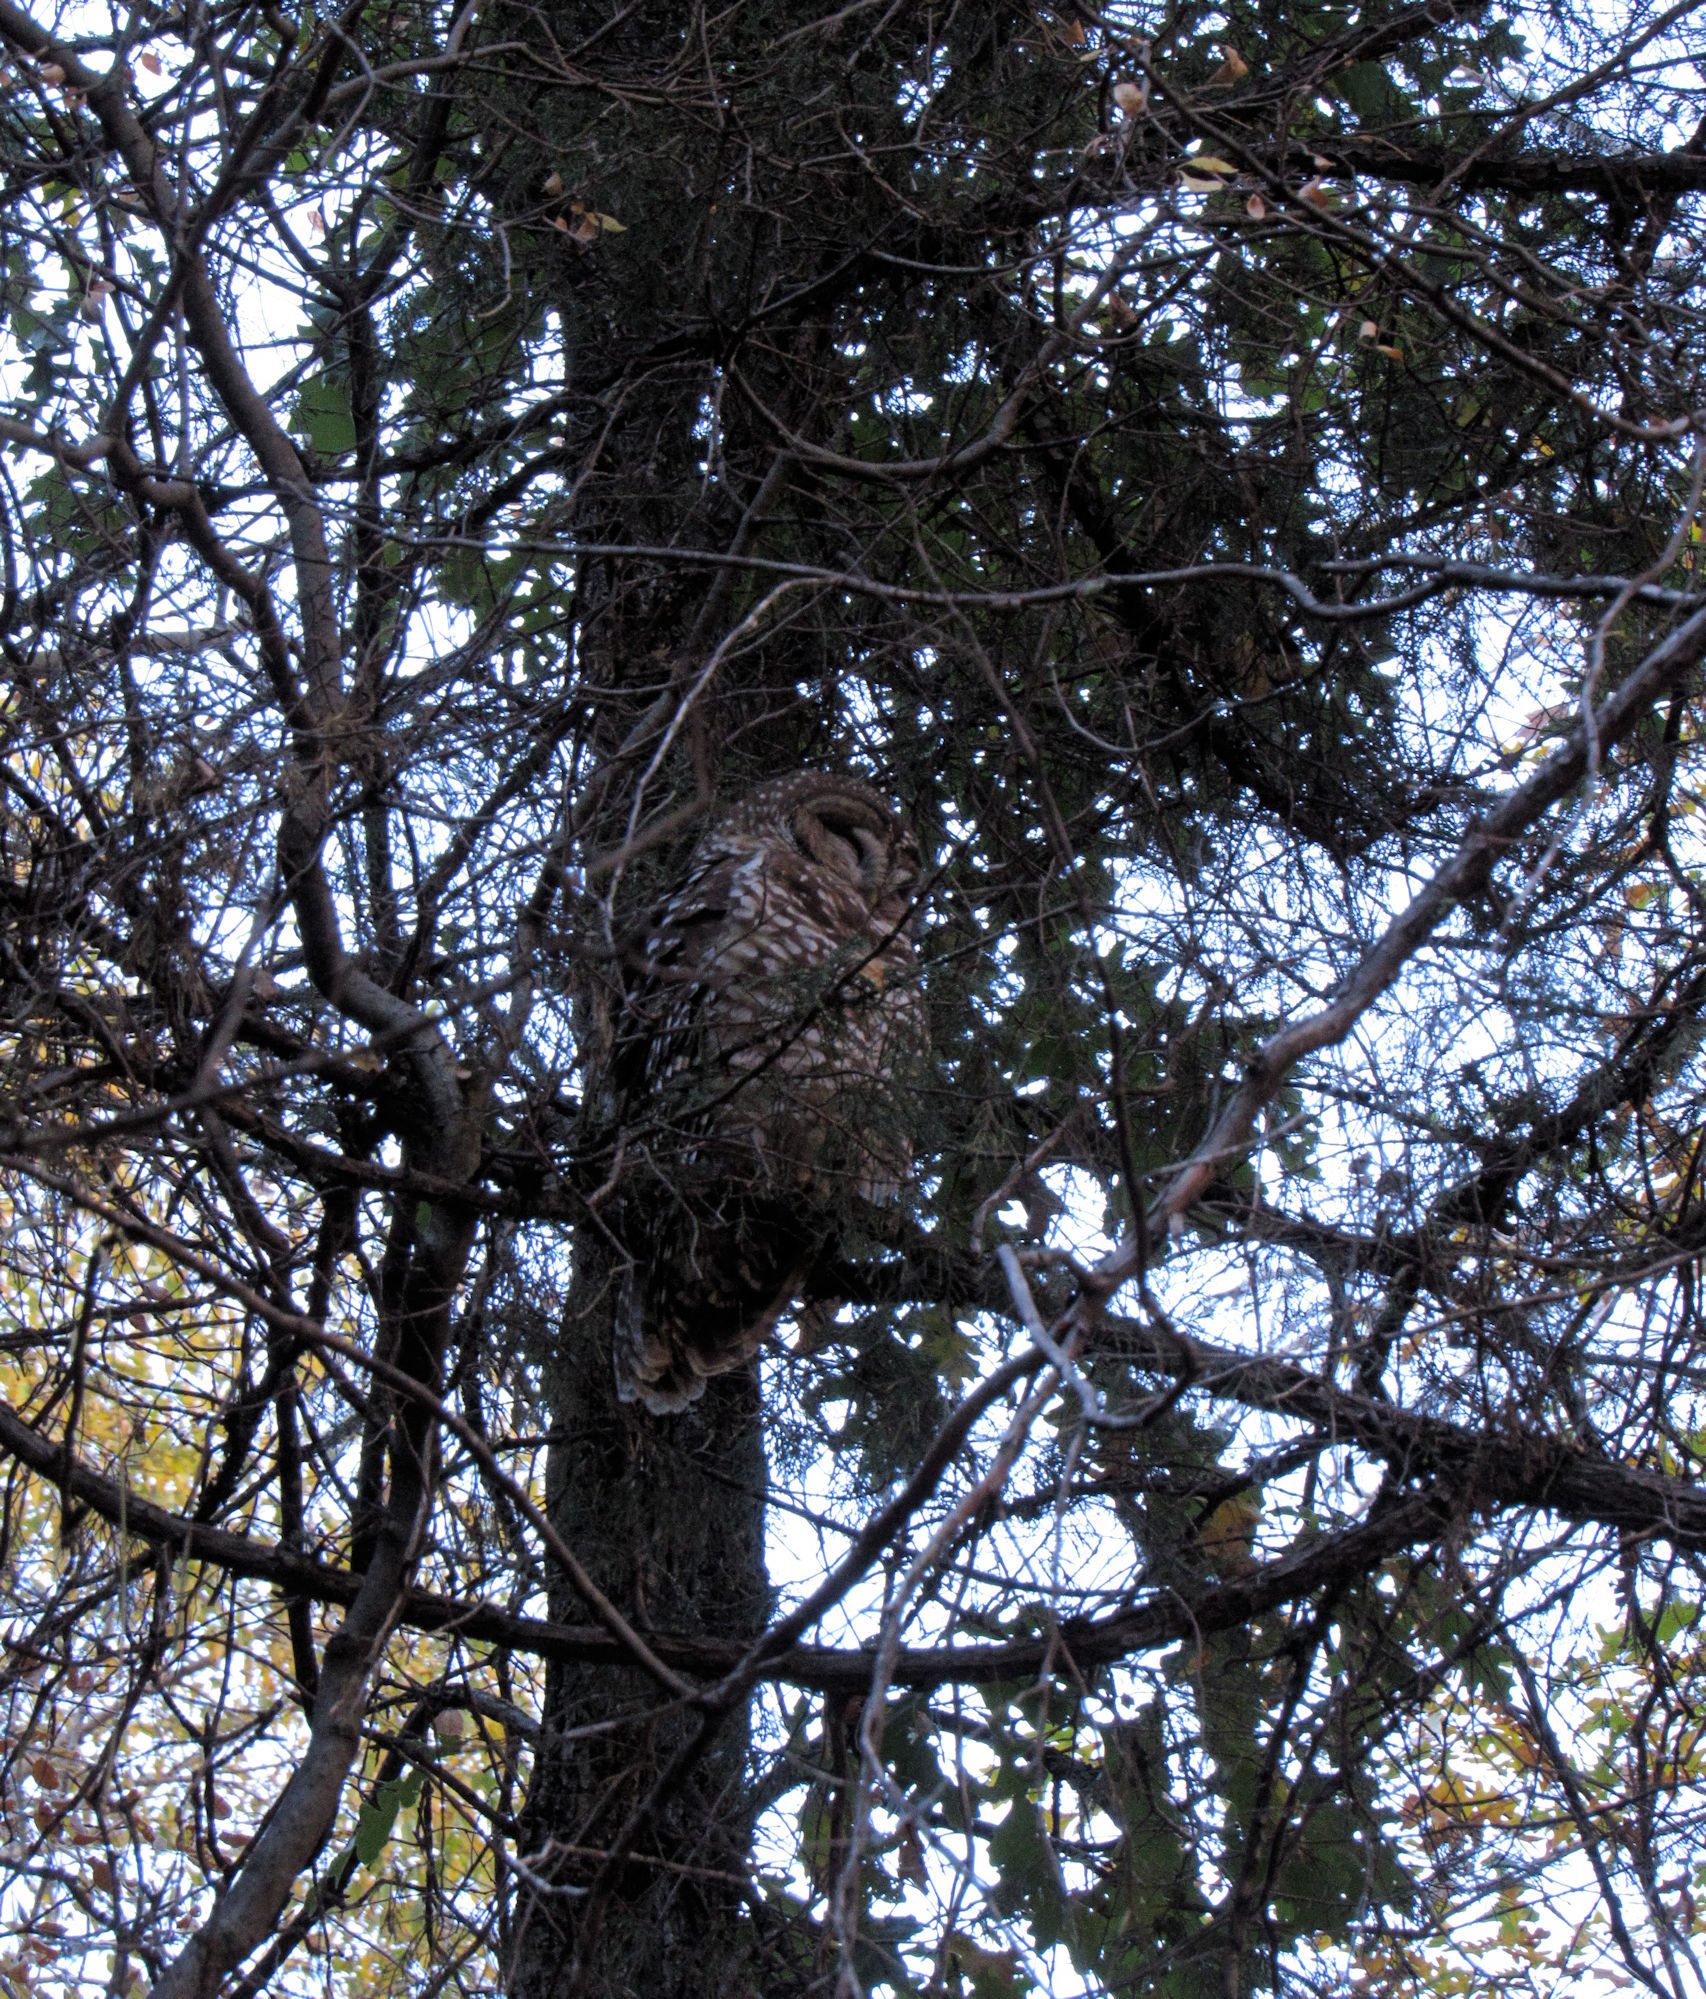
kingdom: Animalia
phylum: Chordata
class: Aves
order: Strigiformes
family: Strigidae
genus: Strix
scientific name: Strix occidentalis
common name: Spotted owl
